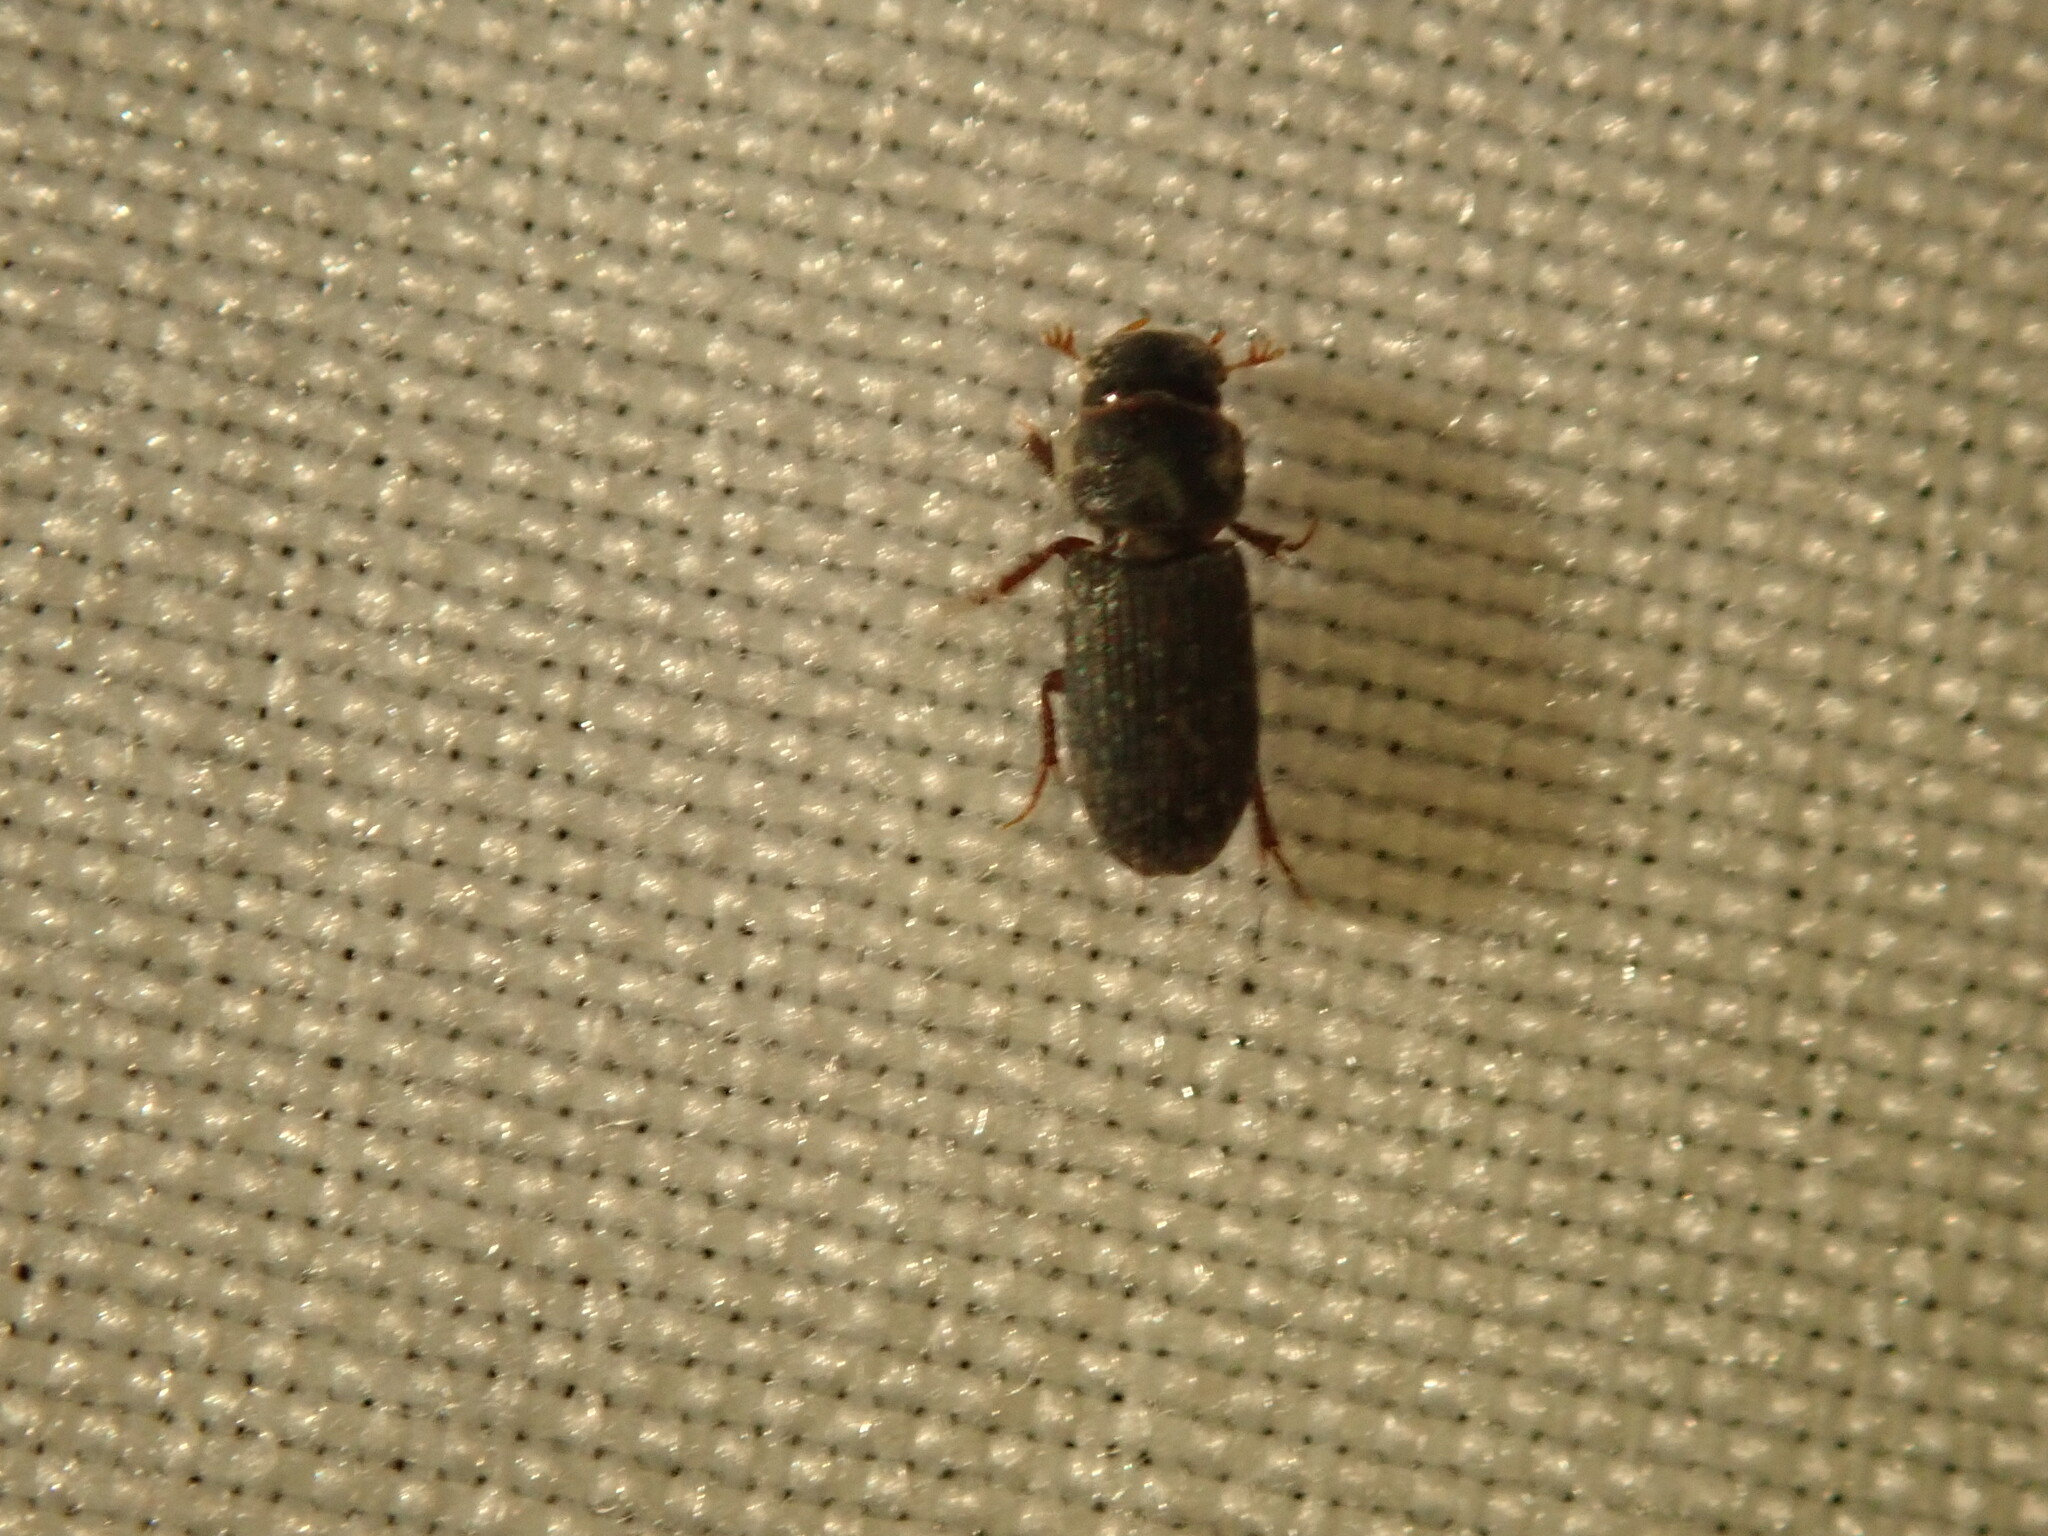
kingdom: Animalia
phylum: Arthropoda
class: Insecta
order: Coleoptera
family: Scarabaeidae
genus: Pleurophorus
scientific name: Pleurophorus caesus
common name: Cut small dung beetle
